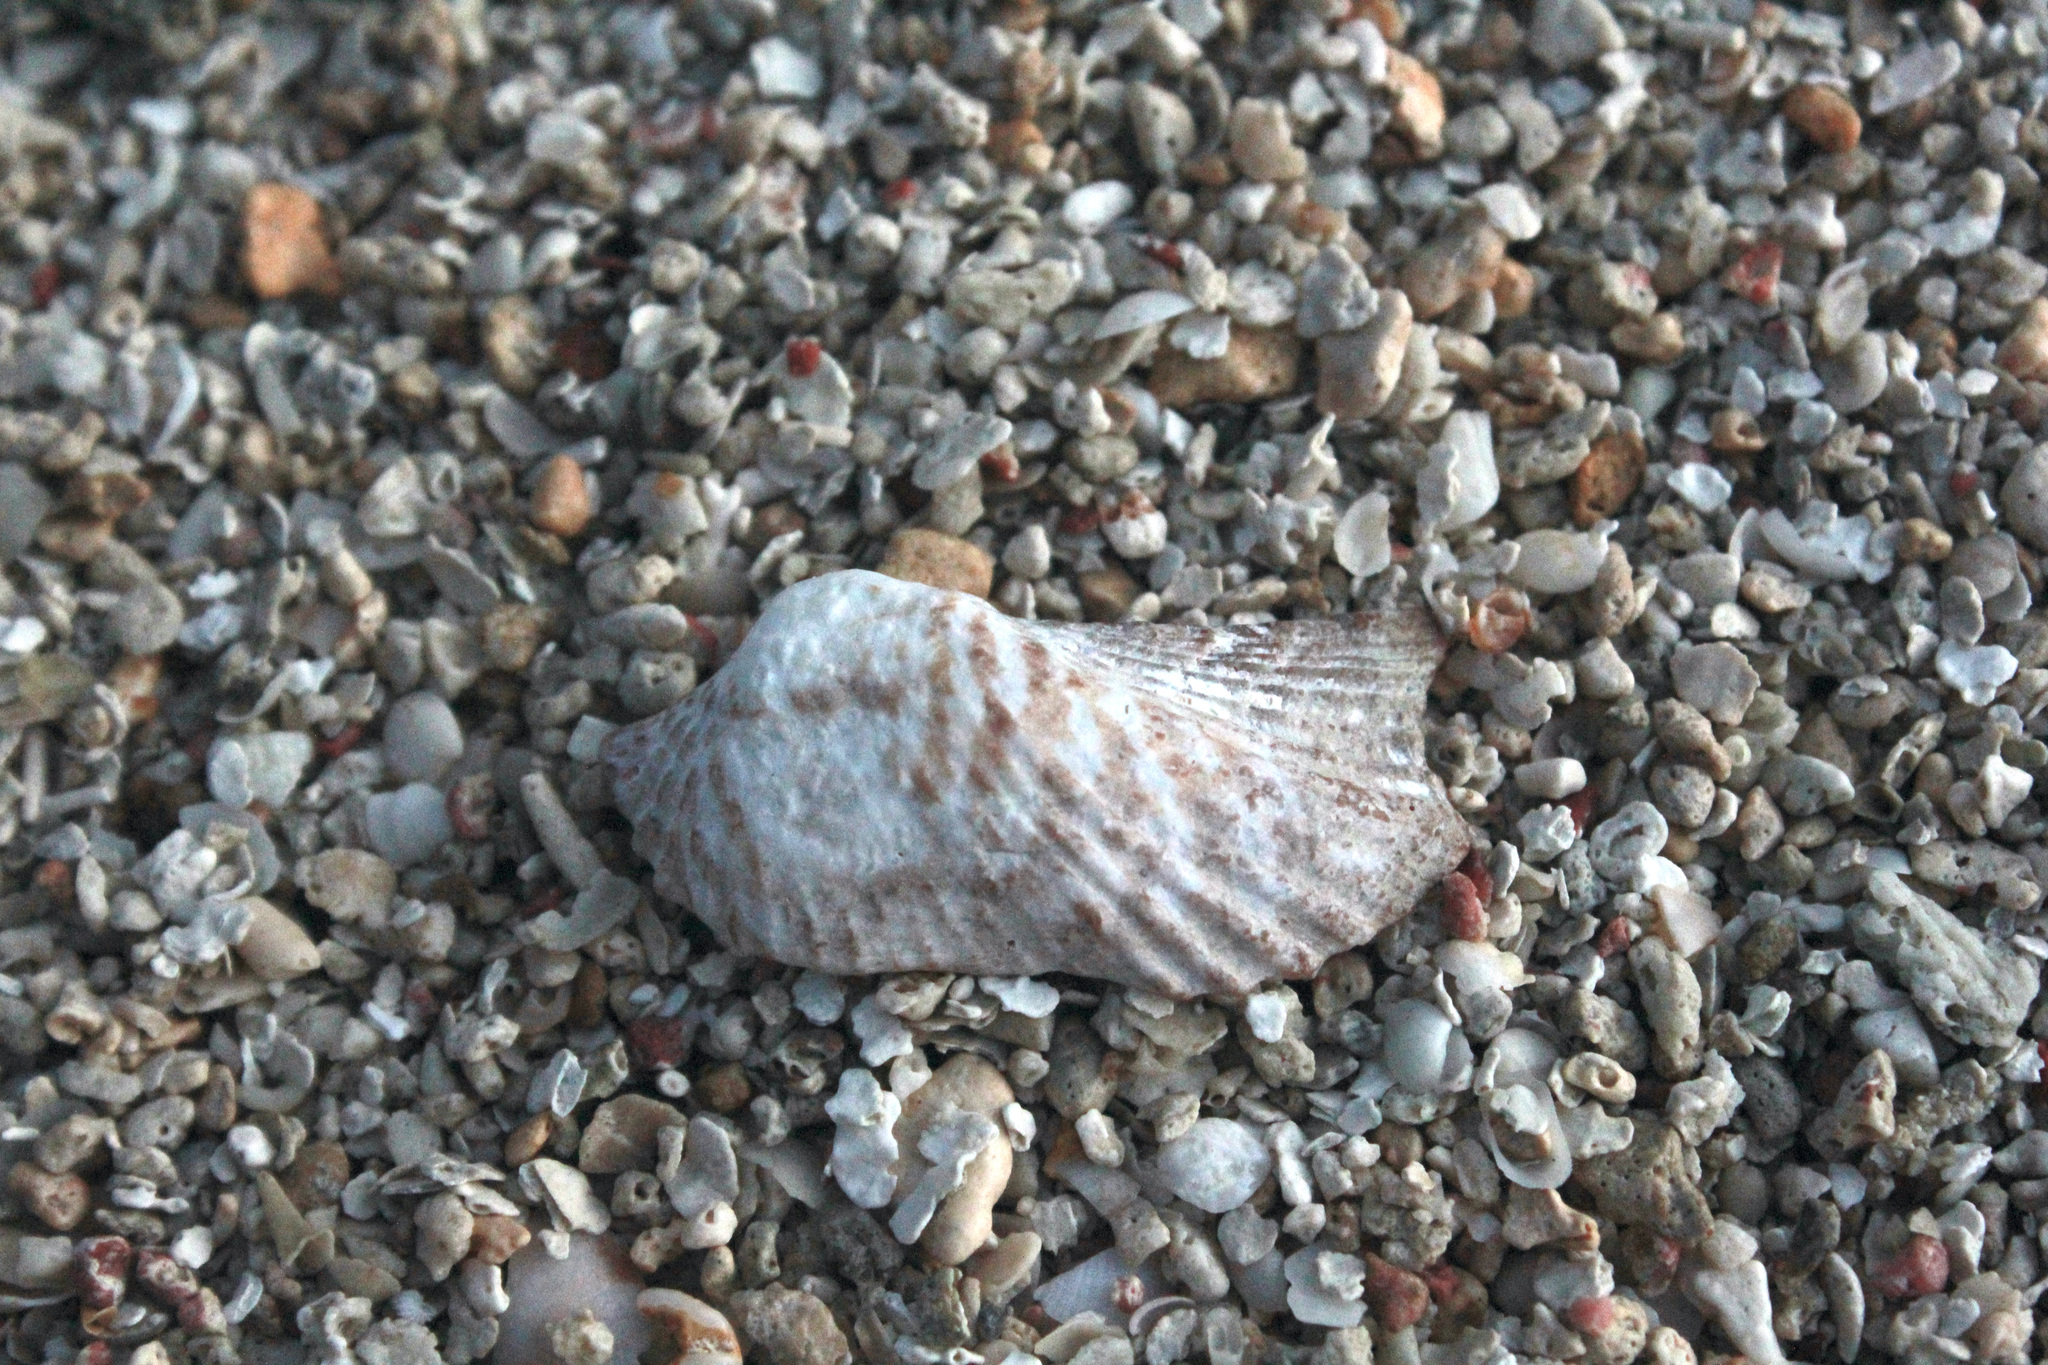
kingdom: Animalia
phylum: Mollusca
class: Bivalvia
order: Arcida
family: Arcidae
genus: Arca
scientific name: Arca zebra
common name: Atlantic turkey wing
